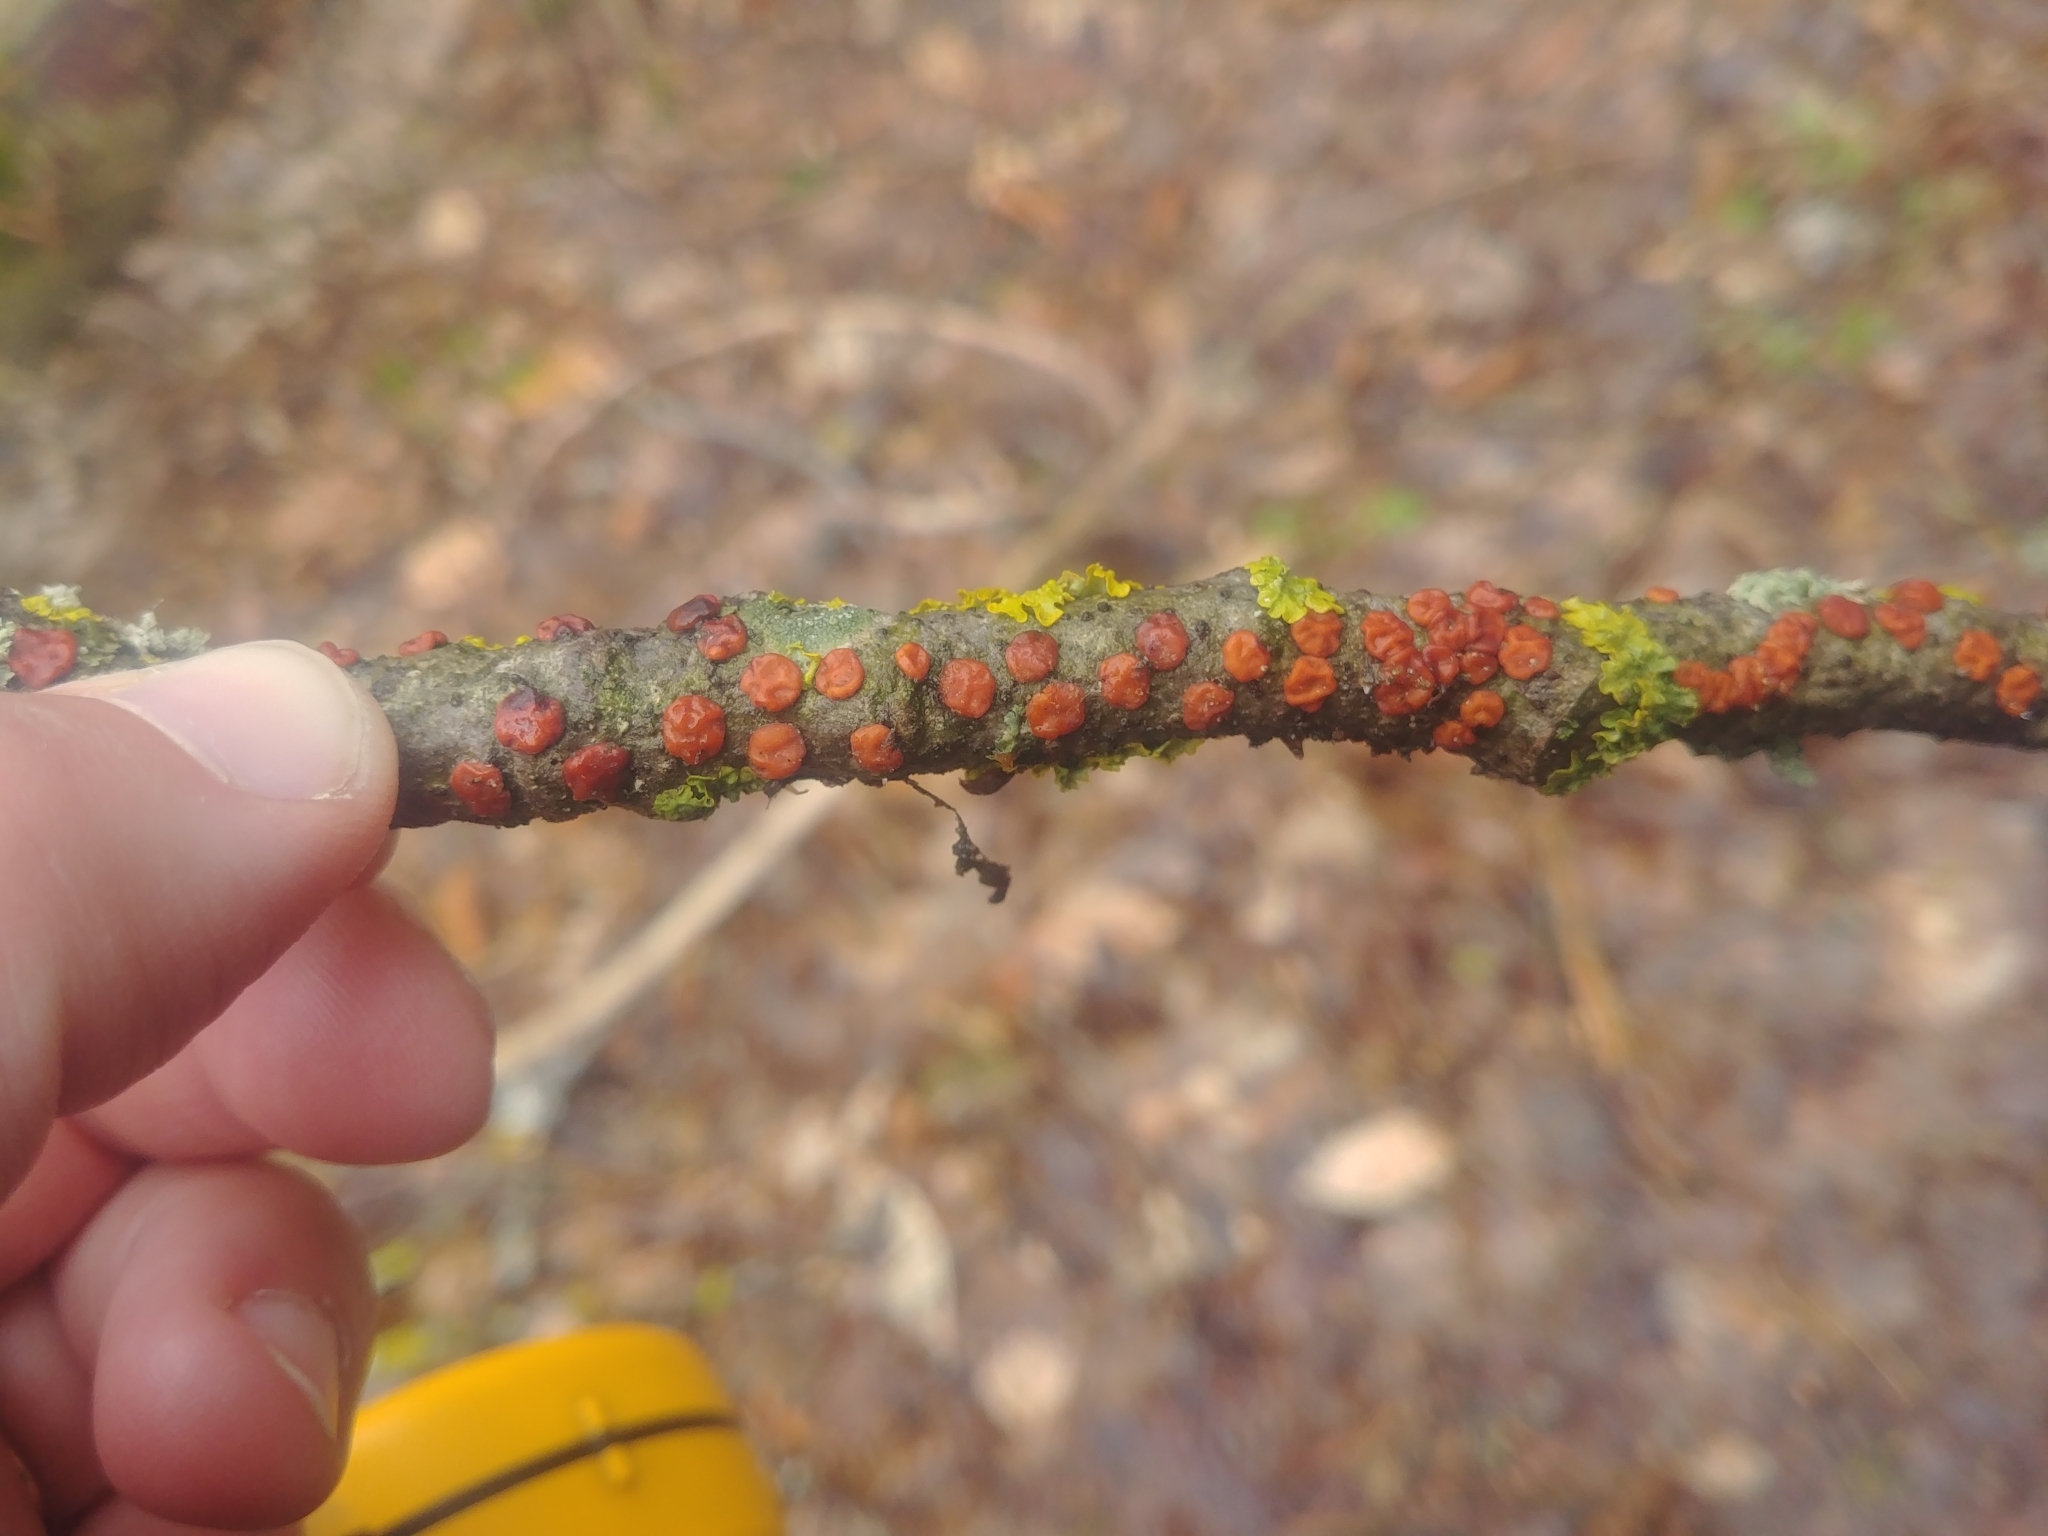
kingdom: Fungi
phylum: Basidiomycota
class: Agaricomycetes
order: Russulales
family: Peniophoraceae
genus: Peniophora
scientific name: Peniophora rufa
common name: Red tree brain fungus
